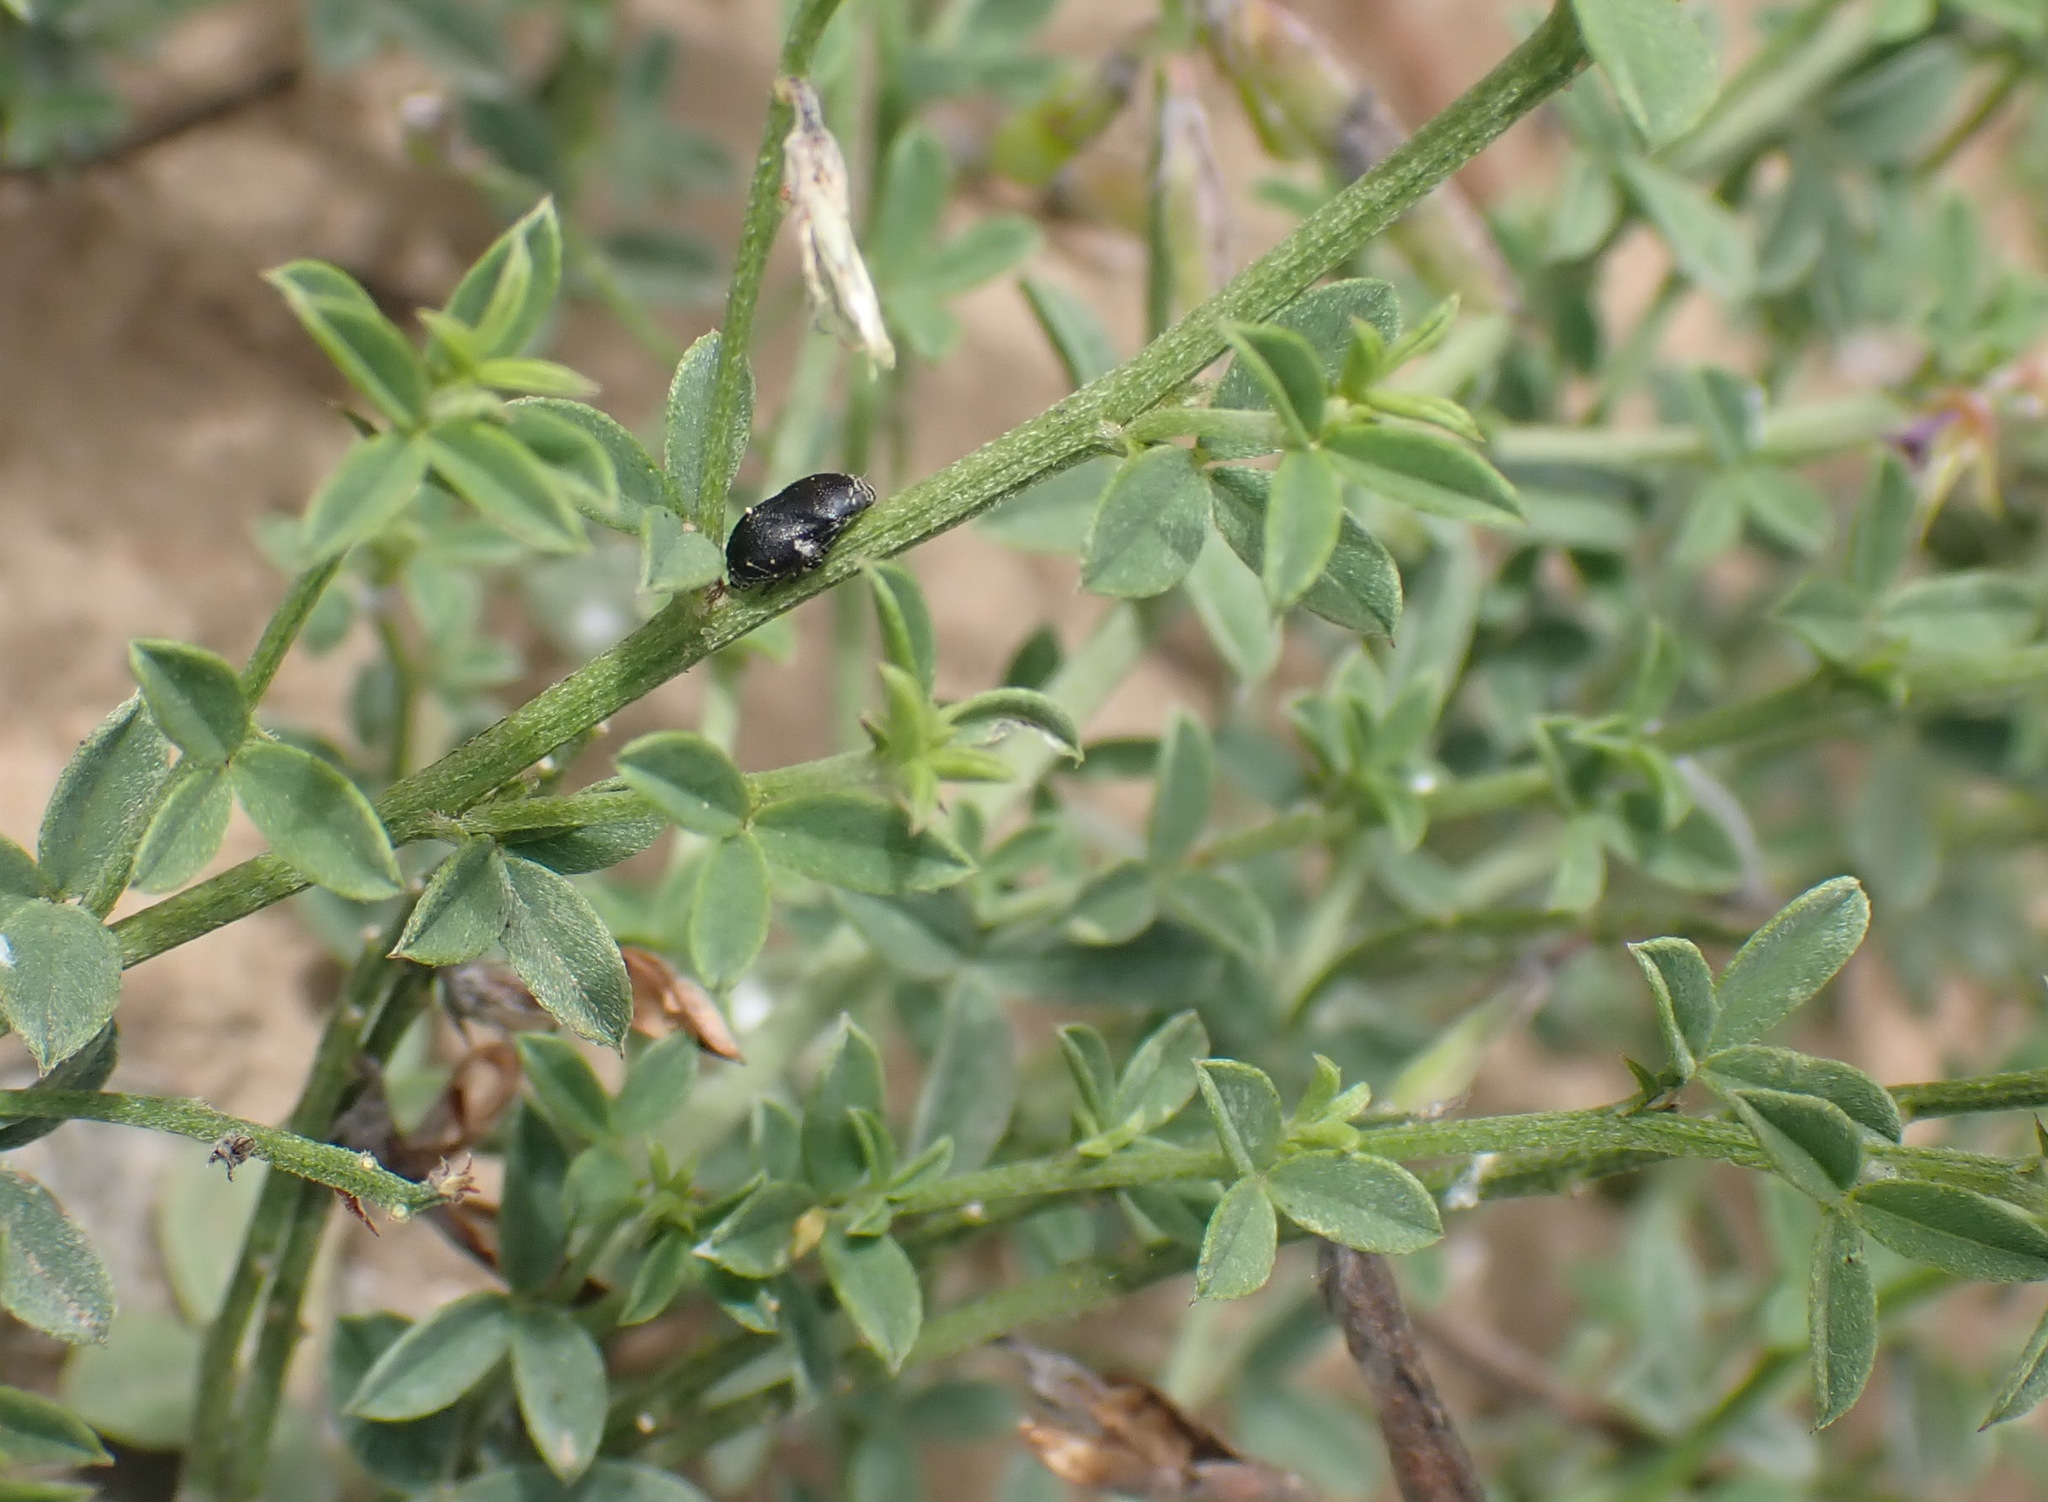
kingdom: Plantae
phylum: Tracheophyta
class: Magnoliopsida
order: Fabales
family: Fabaceae
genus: Indigofera
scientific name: Indigofera priorii
